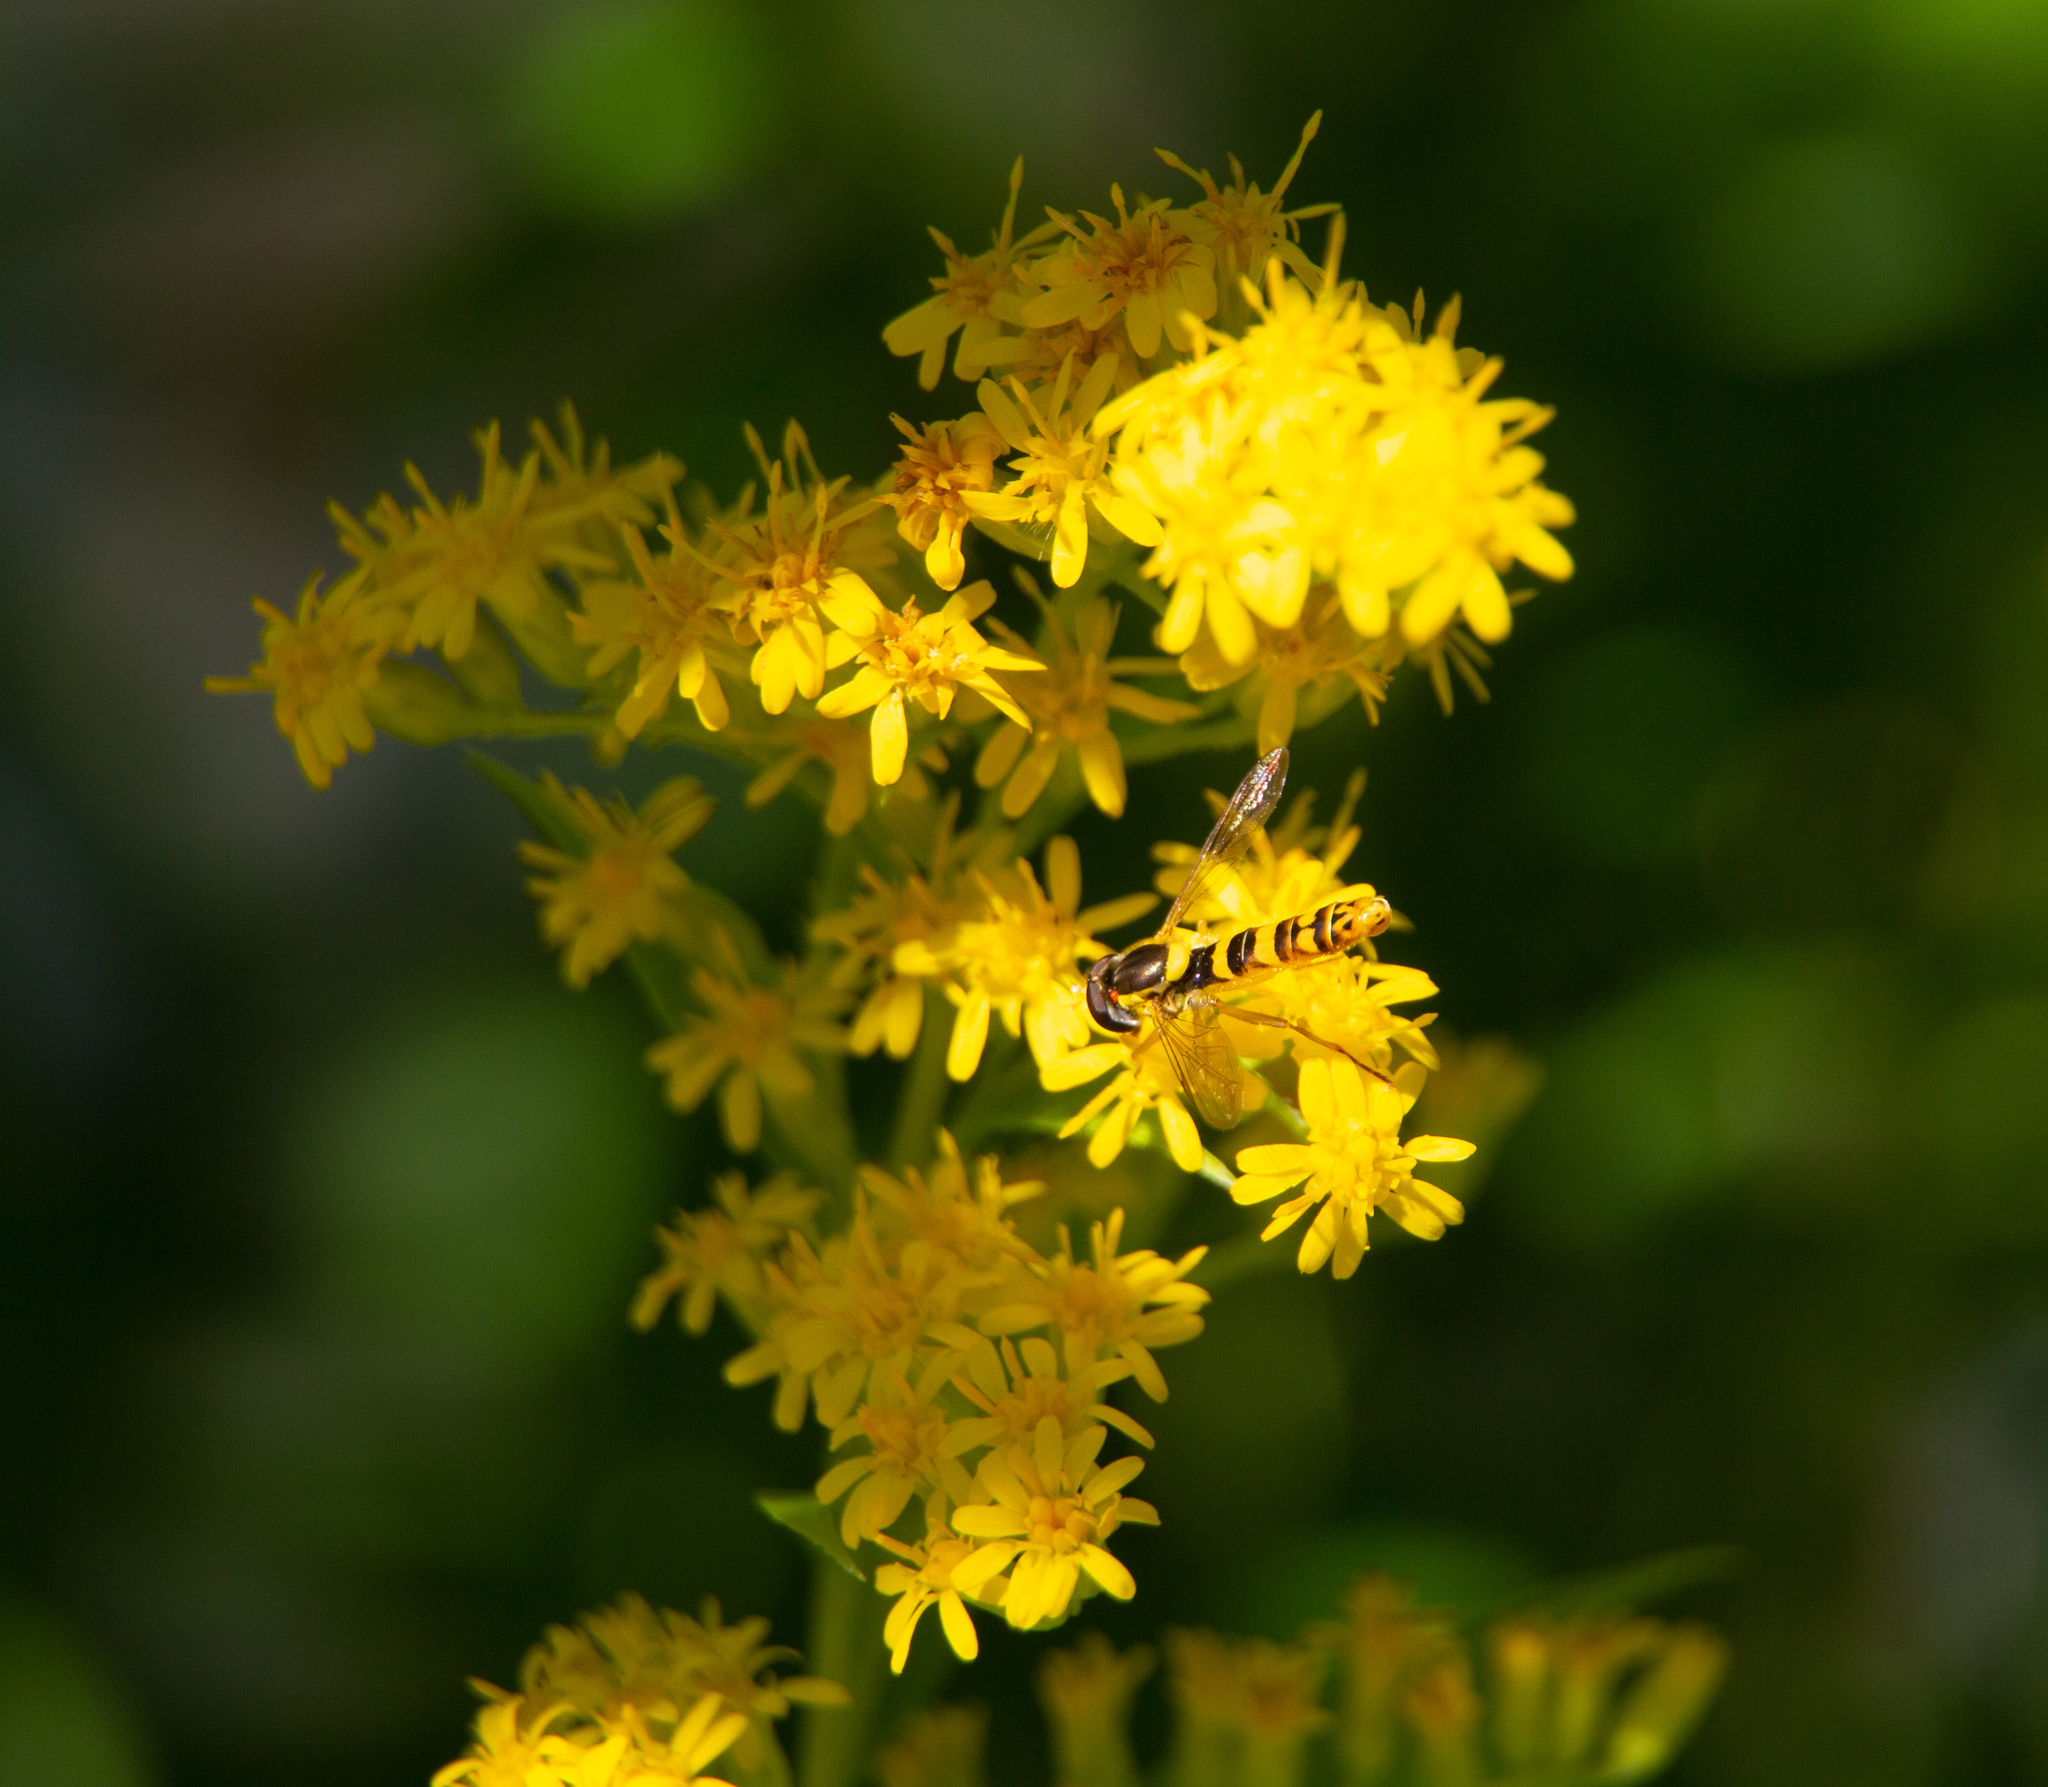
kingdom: Animalia
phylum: Arthropoda
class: Insecta
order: Diptera
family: Syrphidae
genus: Sphaerophoria
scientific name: Sphaerophoria scripta
